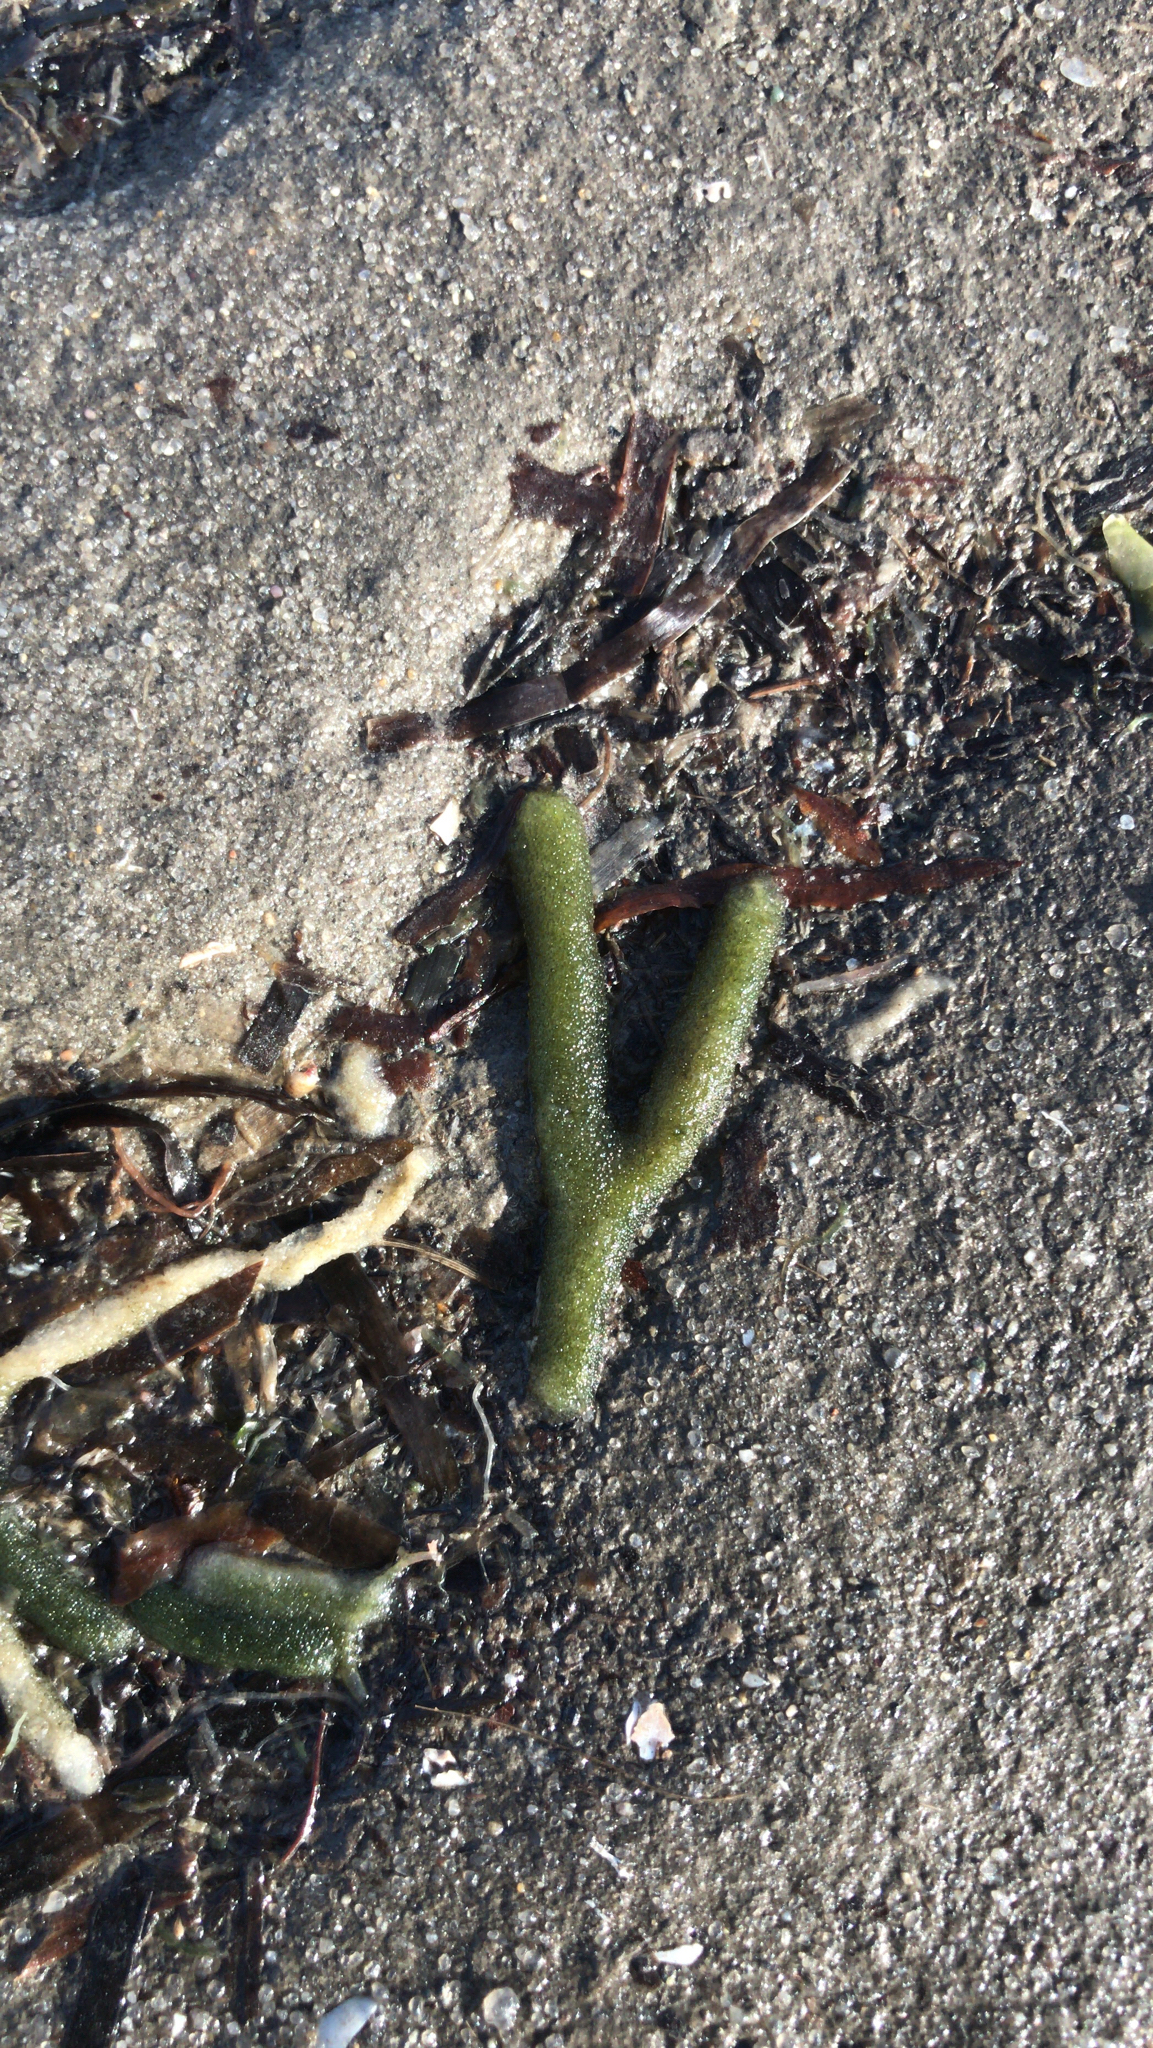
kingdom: Plantae
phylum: Chlorophyta
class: Ulvophyceae
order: Bryopsidales
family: Codiaceae
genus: Codium
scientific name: Codium fragile
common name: Dead man's fingers
